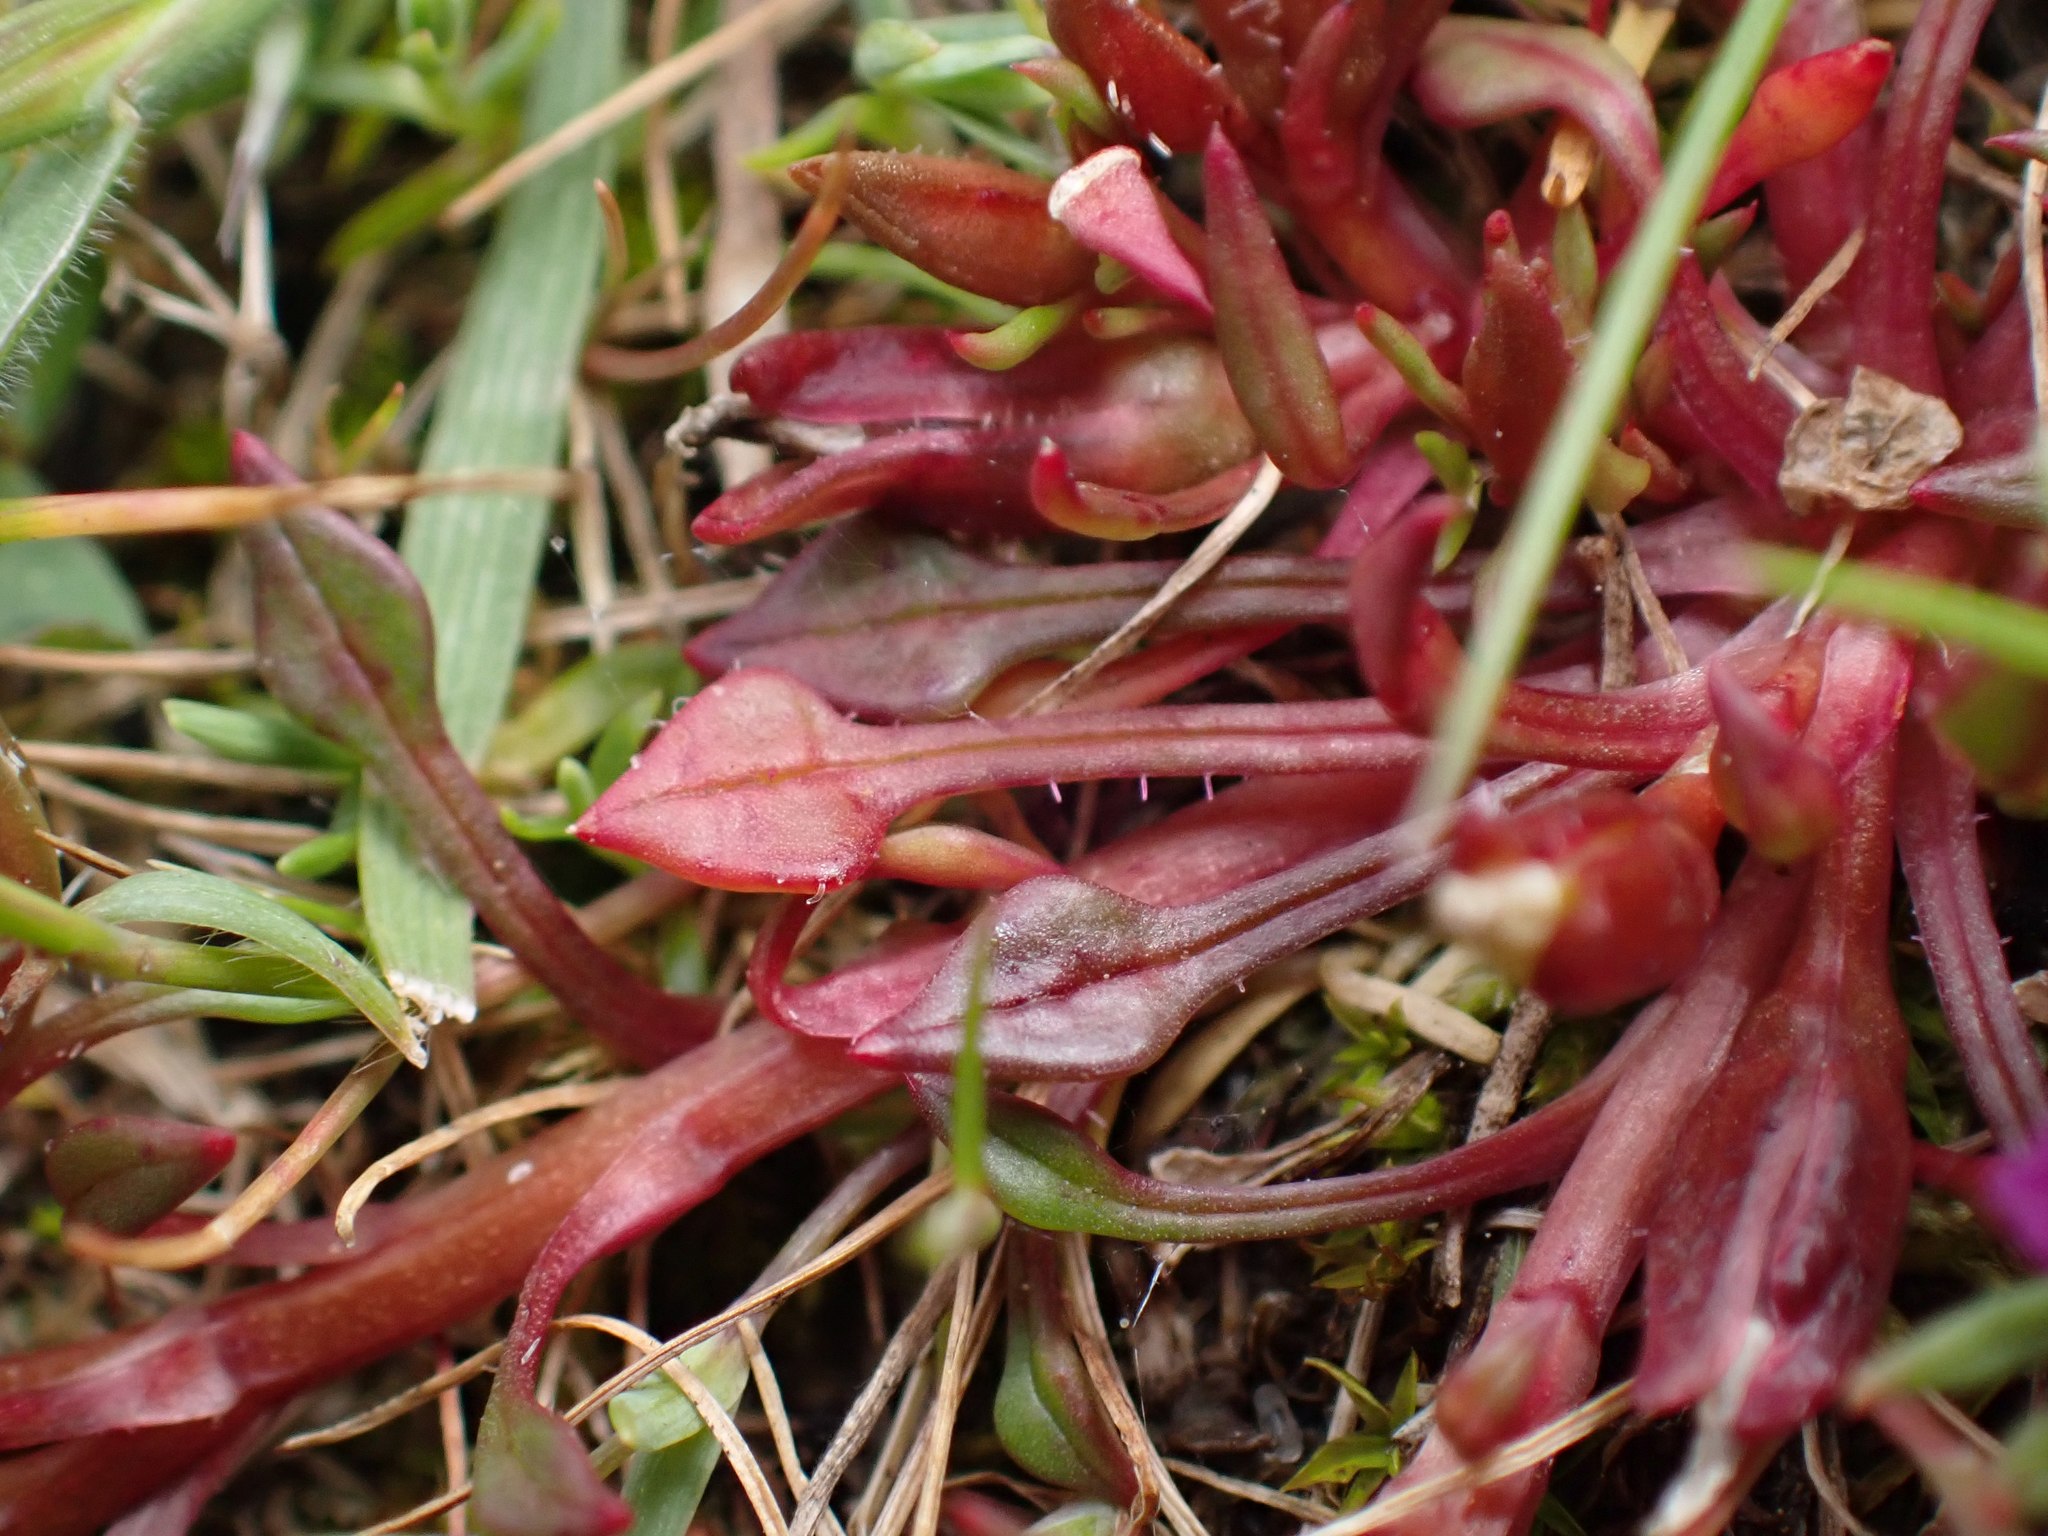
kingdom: Plantae
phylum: Tracheophyta
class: Magnoliopsida
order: Caryophyllales
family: Montiaceae
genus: Calandrinia
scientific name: Calandrinia menziesii
